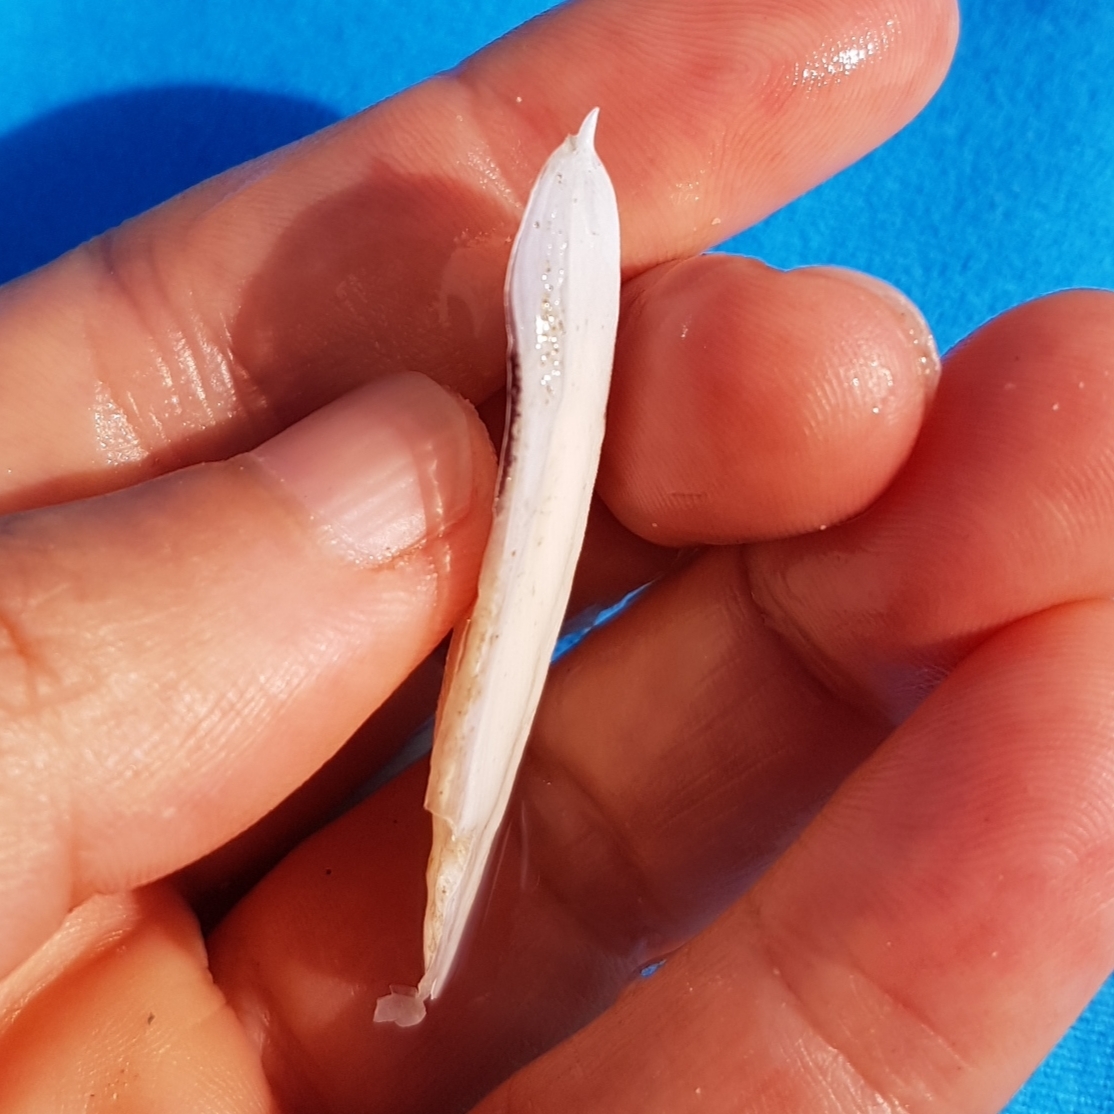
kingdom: Animalia
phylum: Mollusca
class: Cephalopoda
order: Sepiida
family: Sepiidae
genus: Sepia
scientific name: Sepia officinalis
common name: Common cuttlefish
